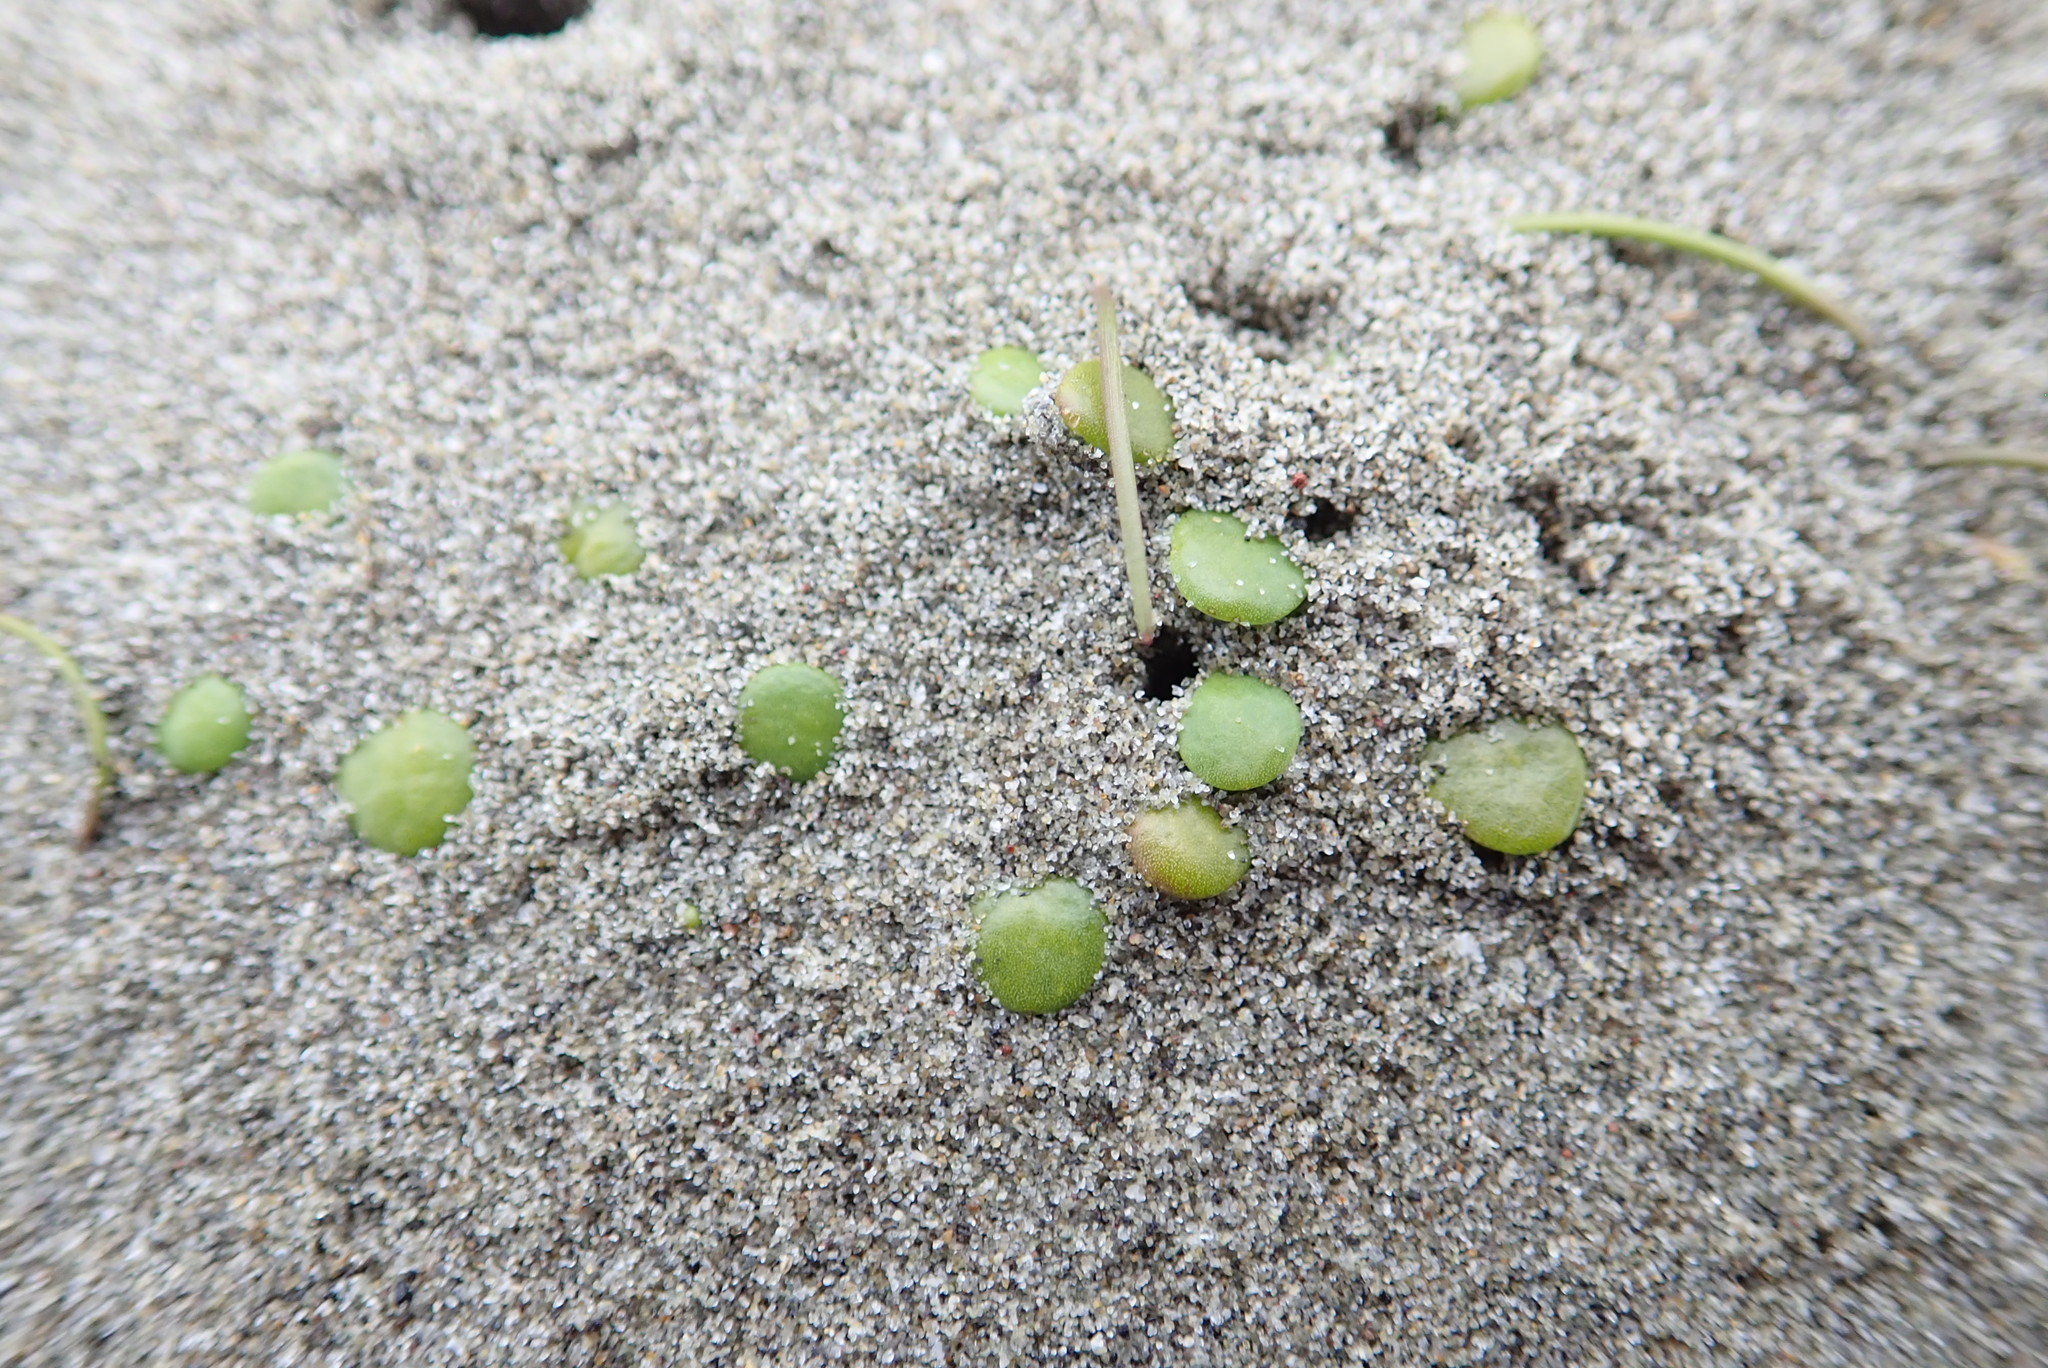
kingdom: Plantae
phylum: Tracheophyta
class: Magnoliopsida
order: Asterales
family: Goodeniaceae
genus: Goodenia
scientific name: Goodenia heenanii
